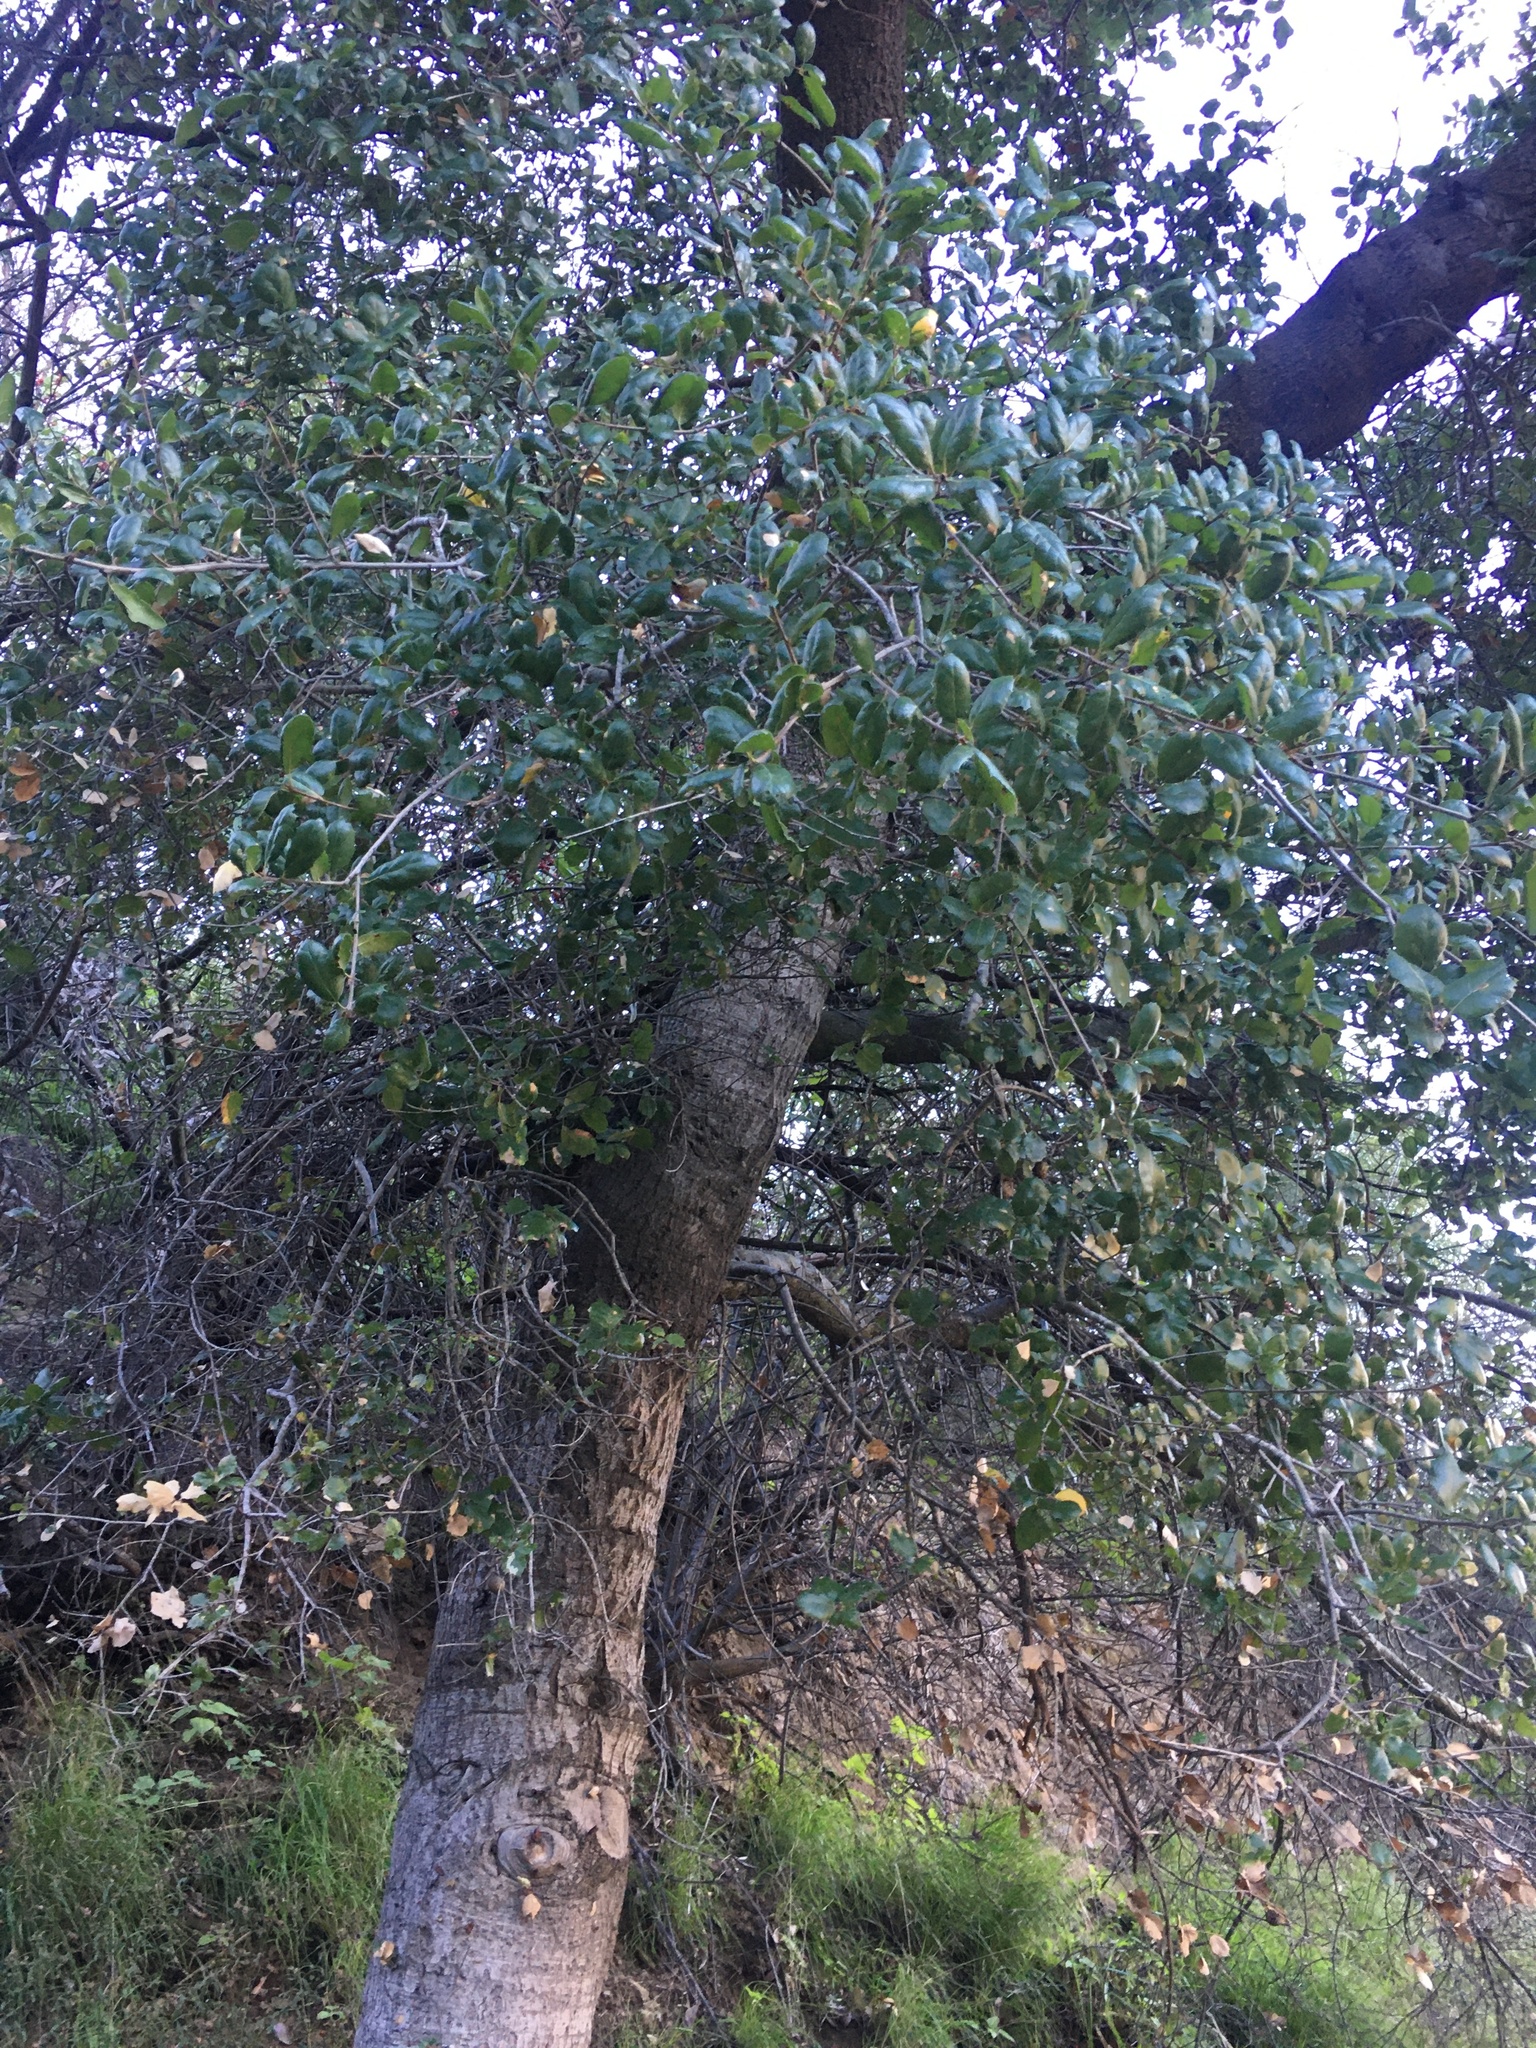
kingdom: Plantae
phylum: Tracheophyta
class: Magnoliopsida
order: Fagales
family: Fagaceae
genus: Quercus
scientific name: Quercus agrifolia
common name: California live oak
